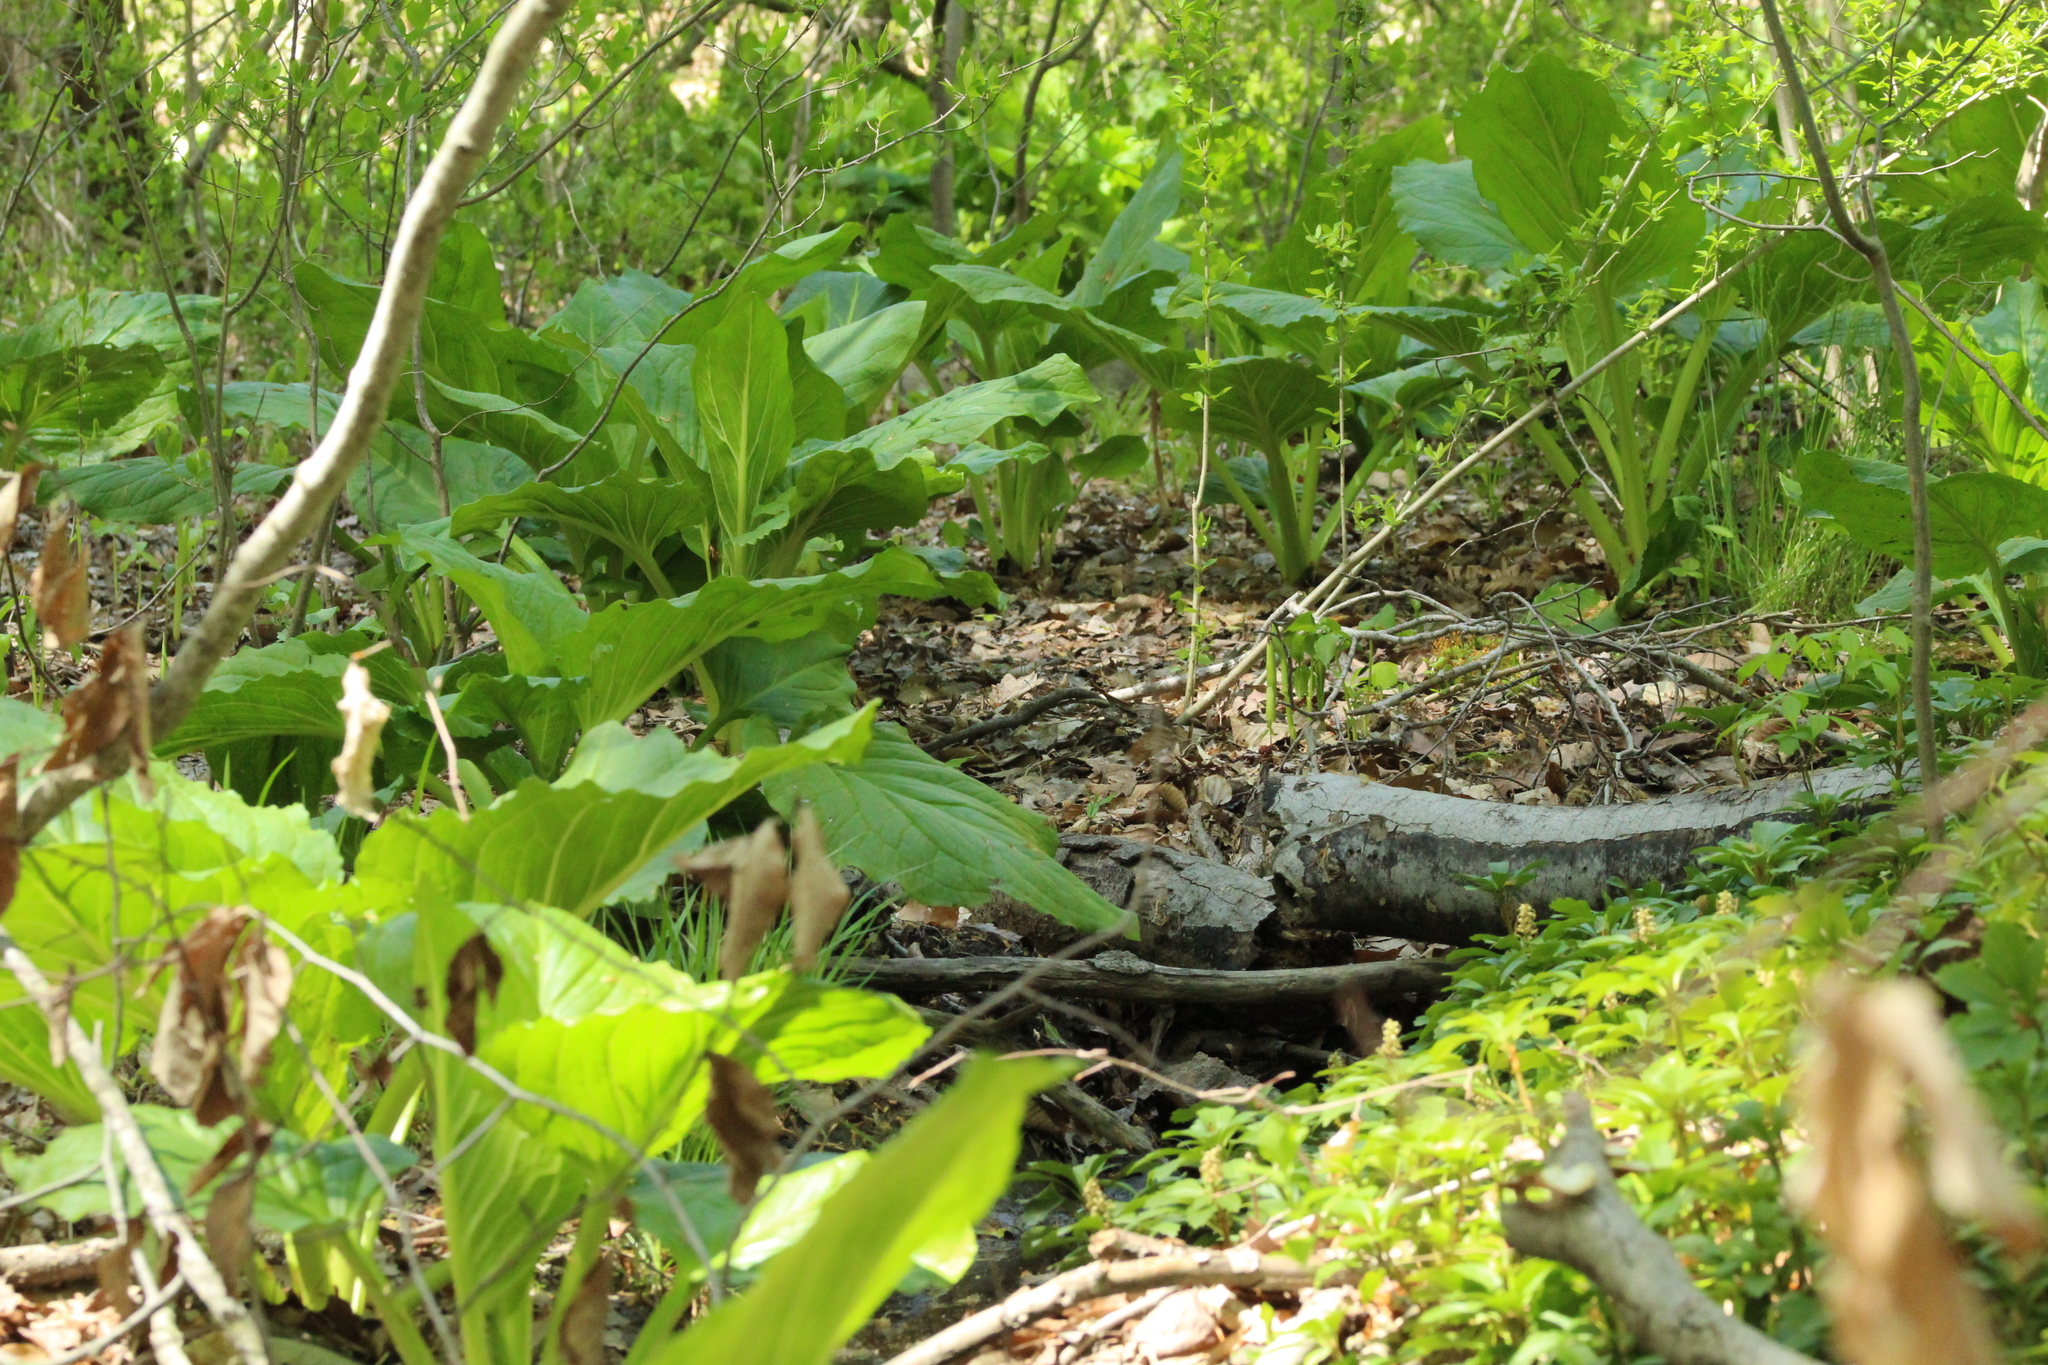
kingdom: Plantae
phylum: Tracheophyta
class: Liliopsida
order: Alismatales
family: Araceae
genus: Symplocarpus
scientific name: Symplocarpus foetidus
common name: Eastern skunk cabbage
